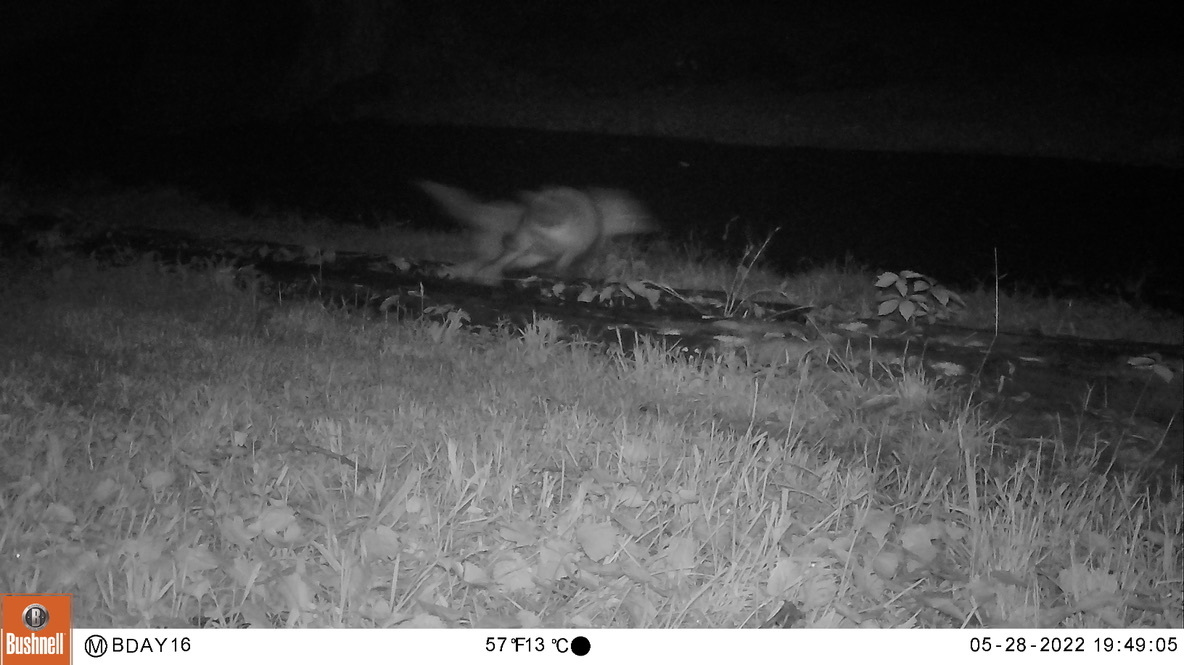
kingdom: Animalia
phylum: Chordata
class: Mammalia
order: Carnivora
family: Canidae
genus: Vulpes
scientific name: Vulpes vulpes
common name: Red fox
